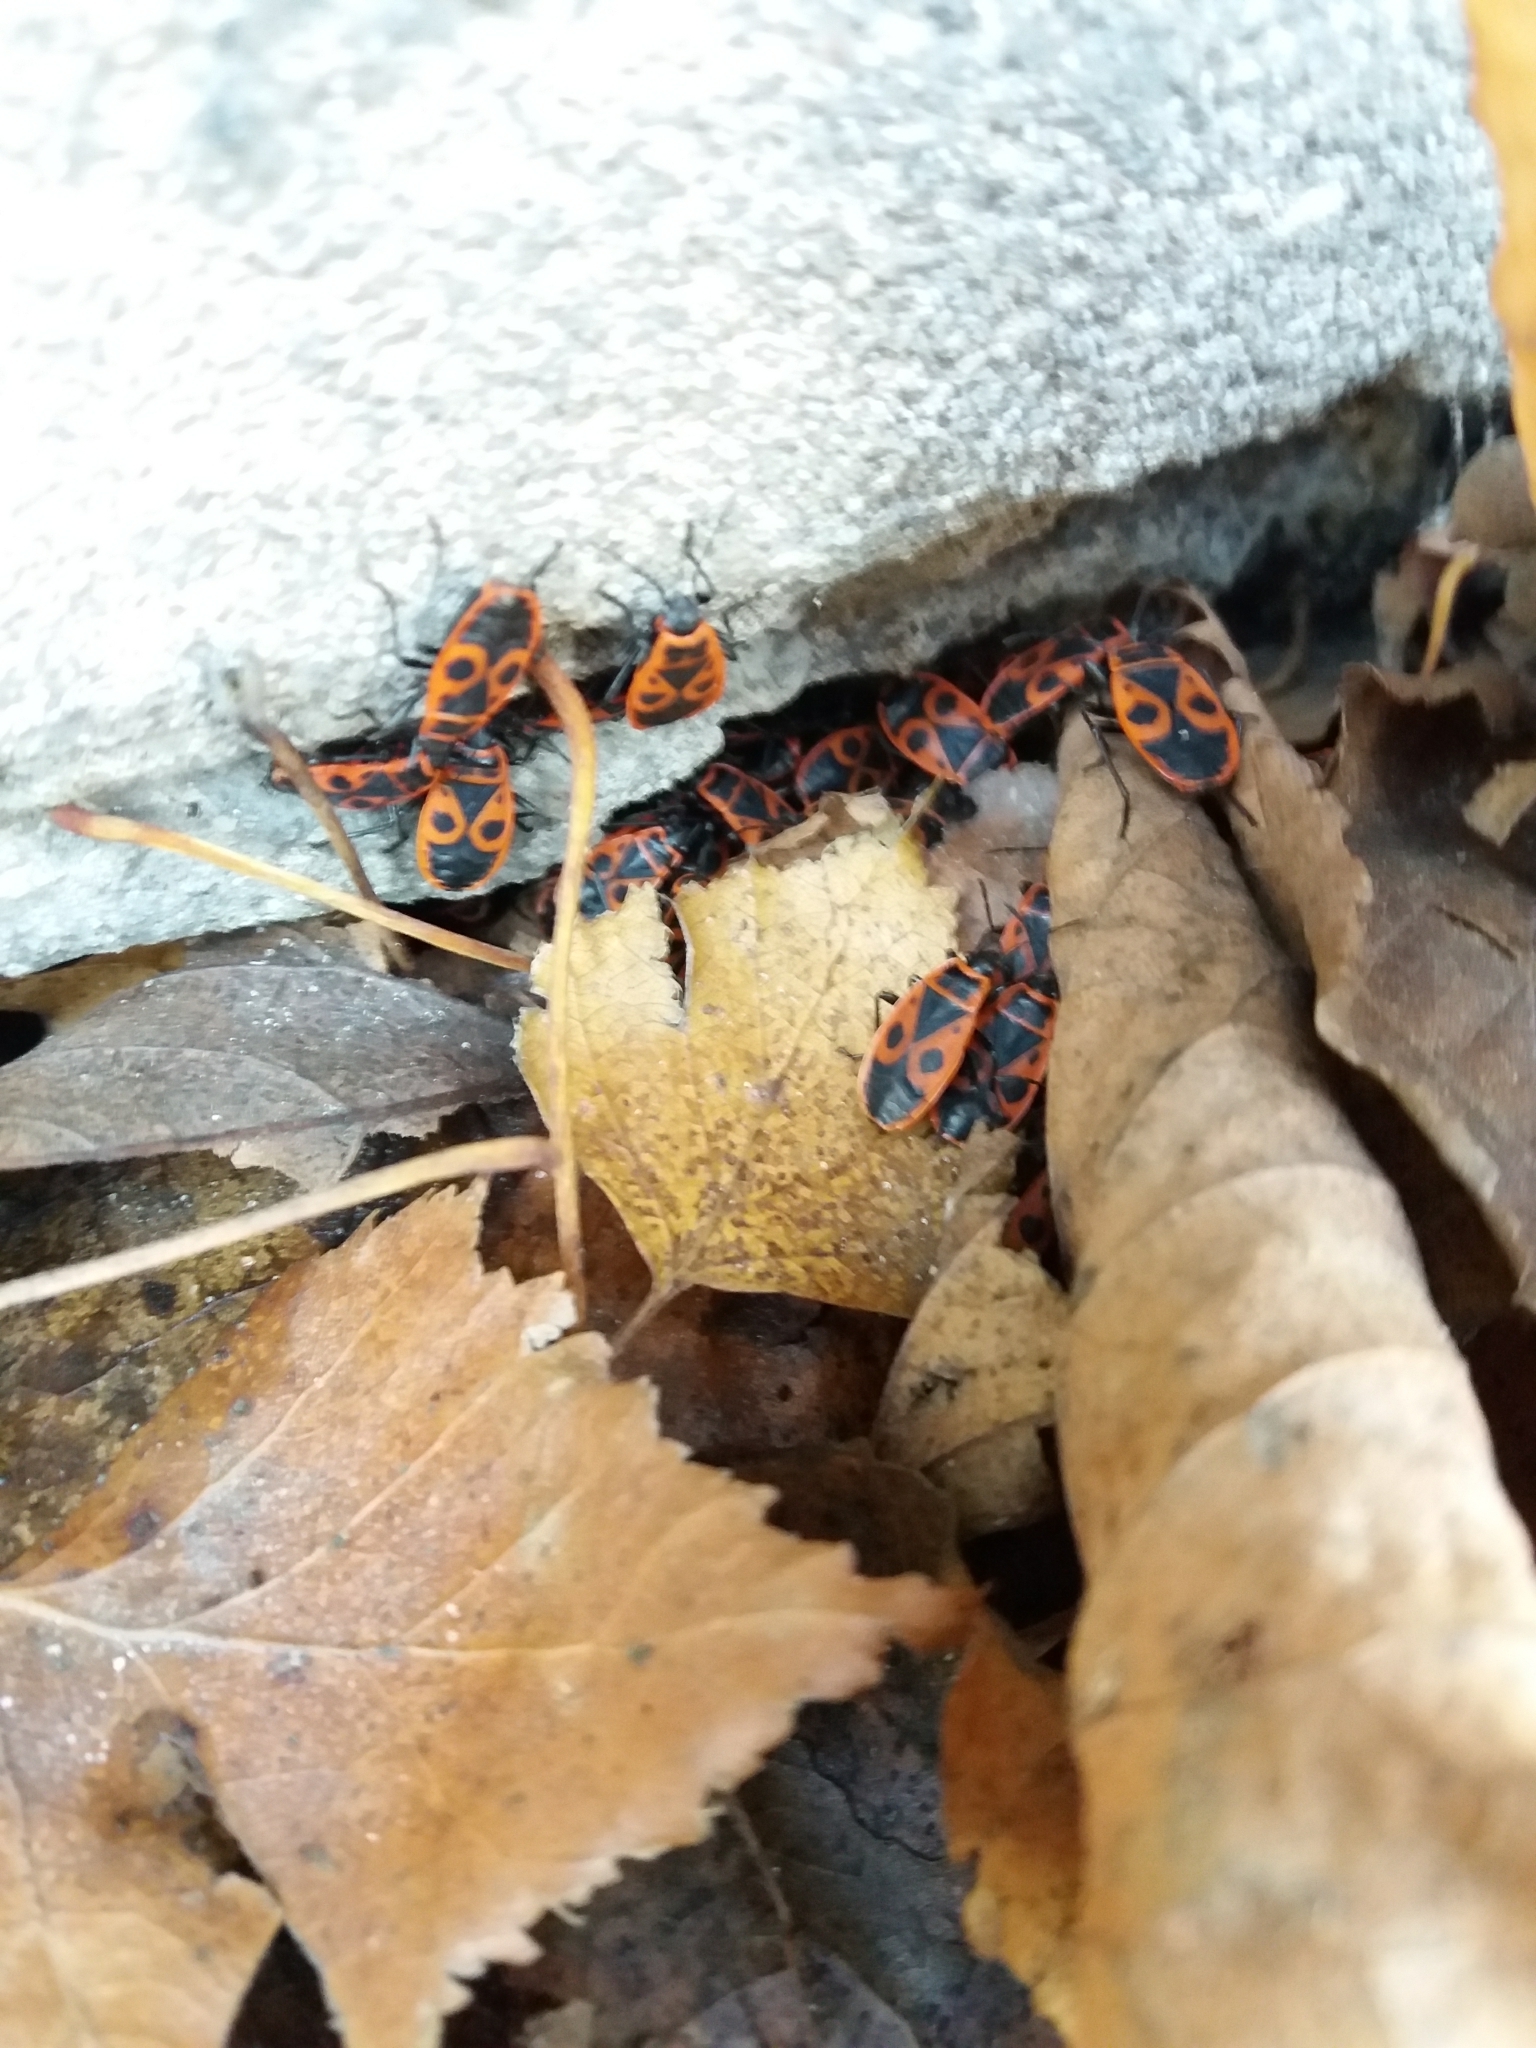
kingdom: Animalia
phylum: Arthropoda
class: Insecta
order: Hemiptera
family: Pyrrhocoridae
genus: Pyrrhocoris
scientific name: Pyrrhocoris apterus
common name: Firebug
